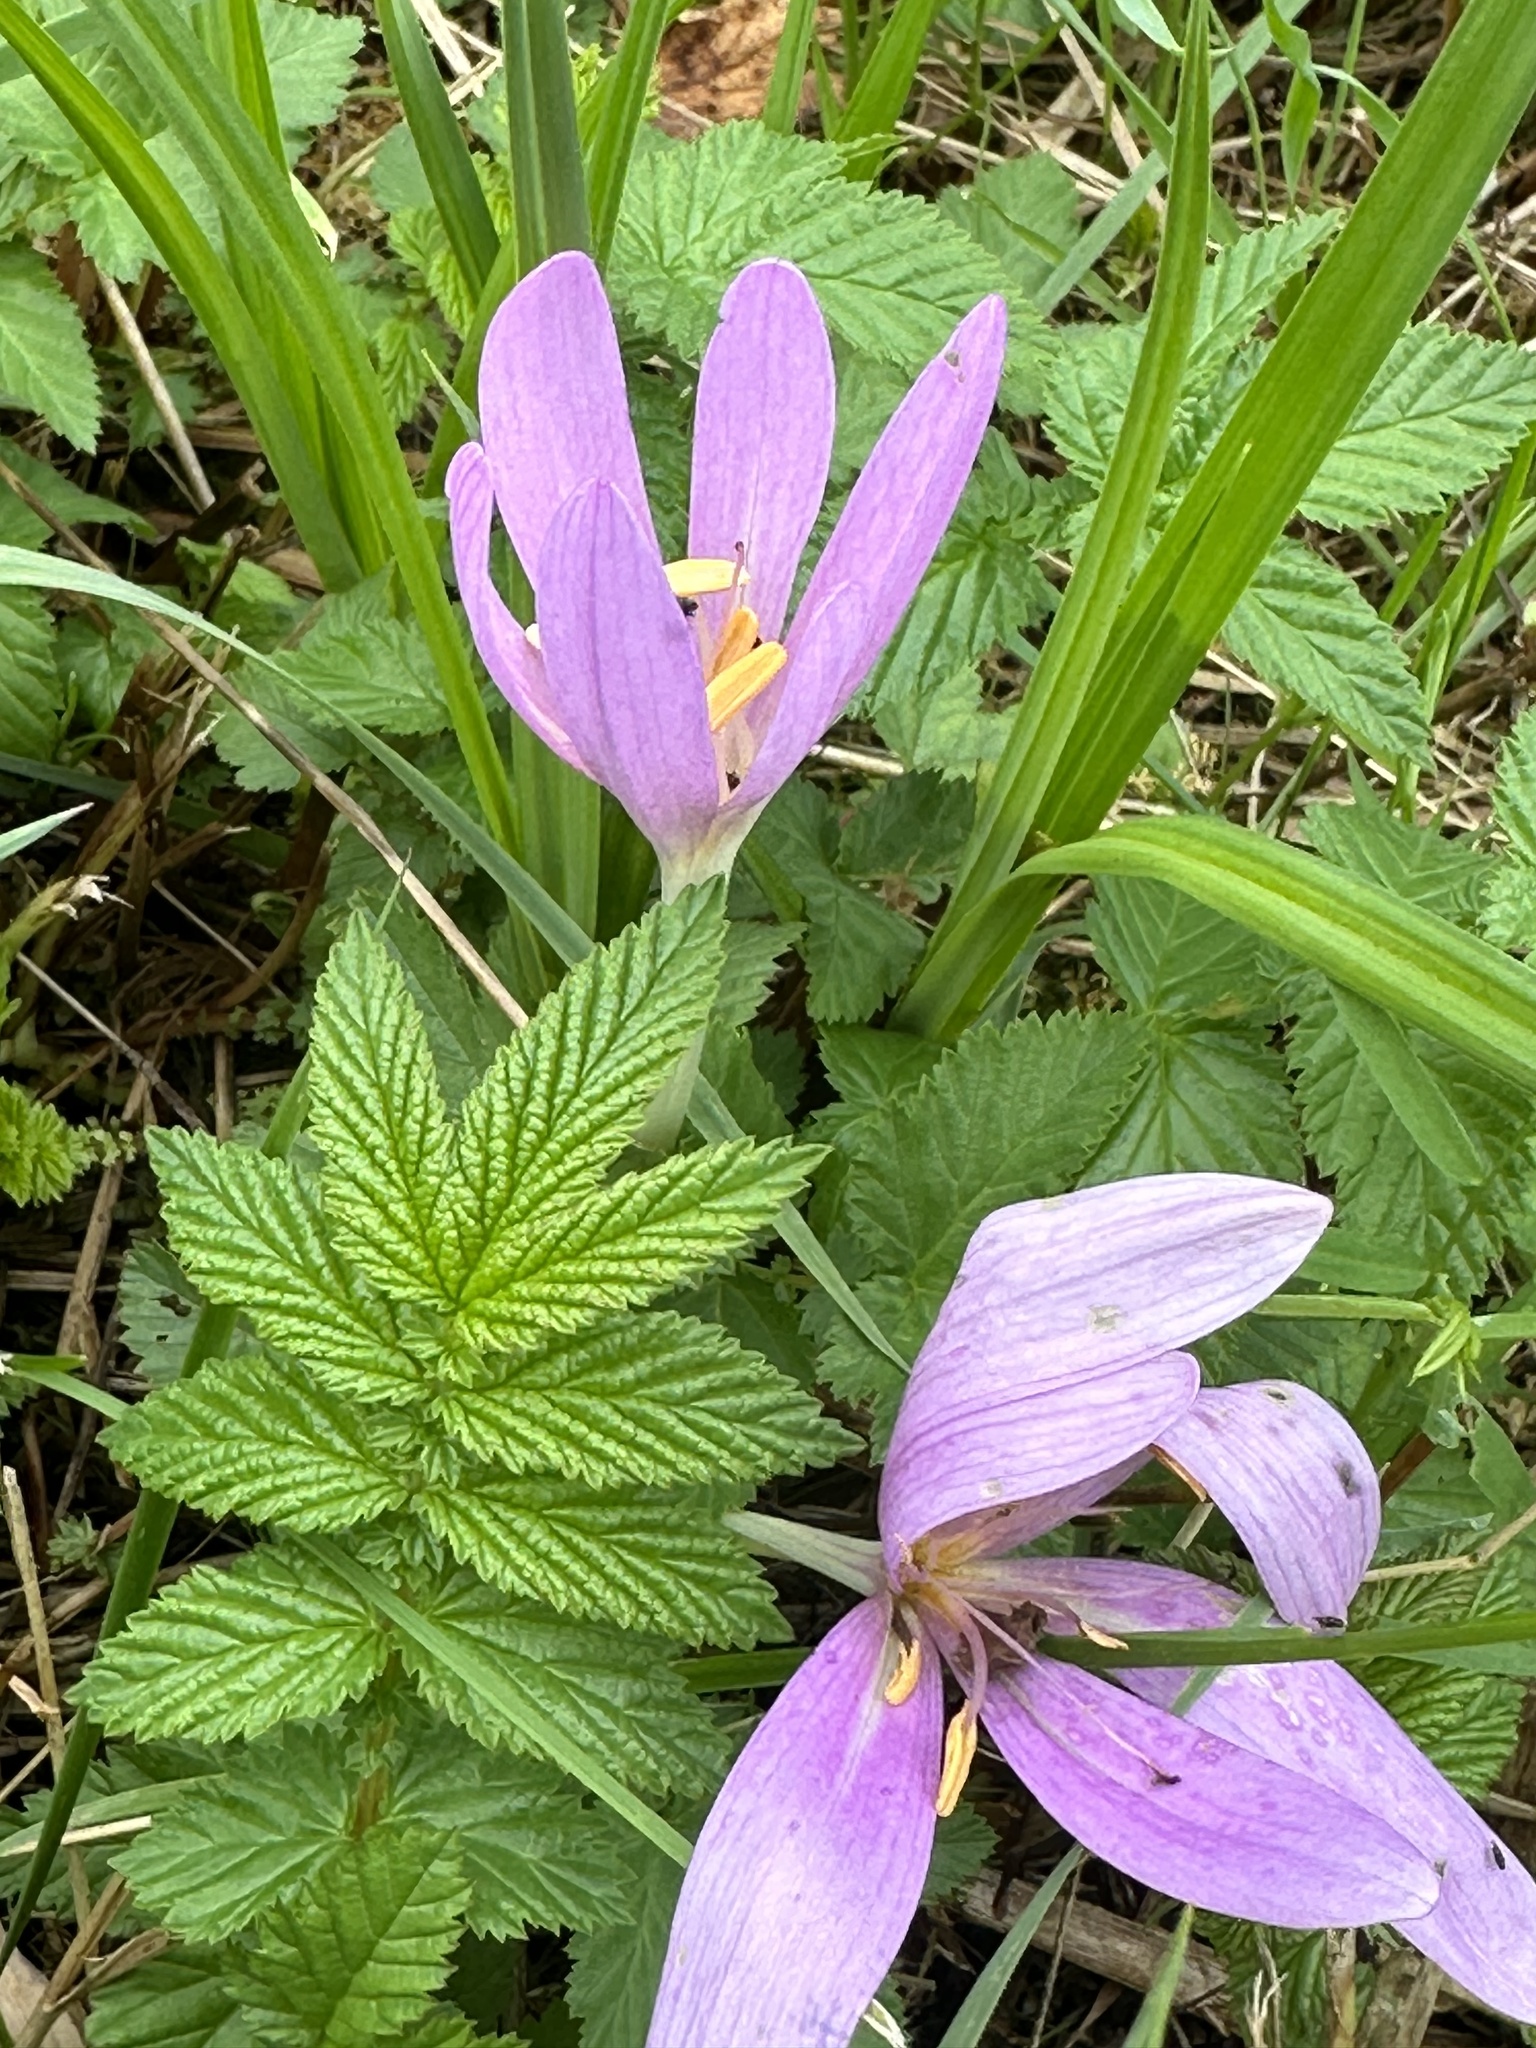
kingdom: Plantae
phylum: Tracheophyta
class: Liliopsida
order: Liliales
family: Colchicaceae
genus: Colchicum
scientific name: Colchicum autumnale
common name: Autumn crocus
